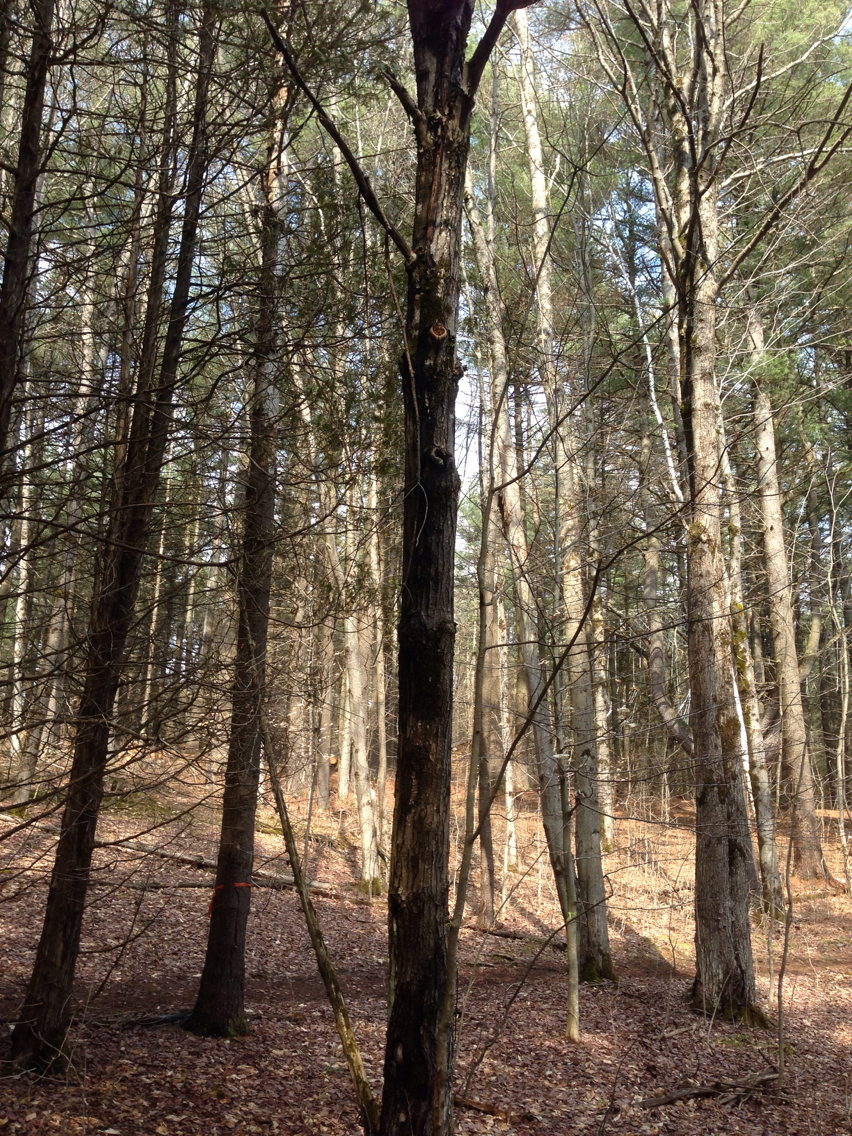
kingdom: Plantae
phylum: Tracheophyta
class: Magnoliopsida
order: Sapindales
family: Sapindaceae
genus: Acer
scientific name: Acer rubrum
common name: Red maple
